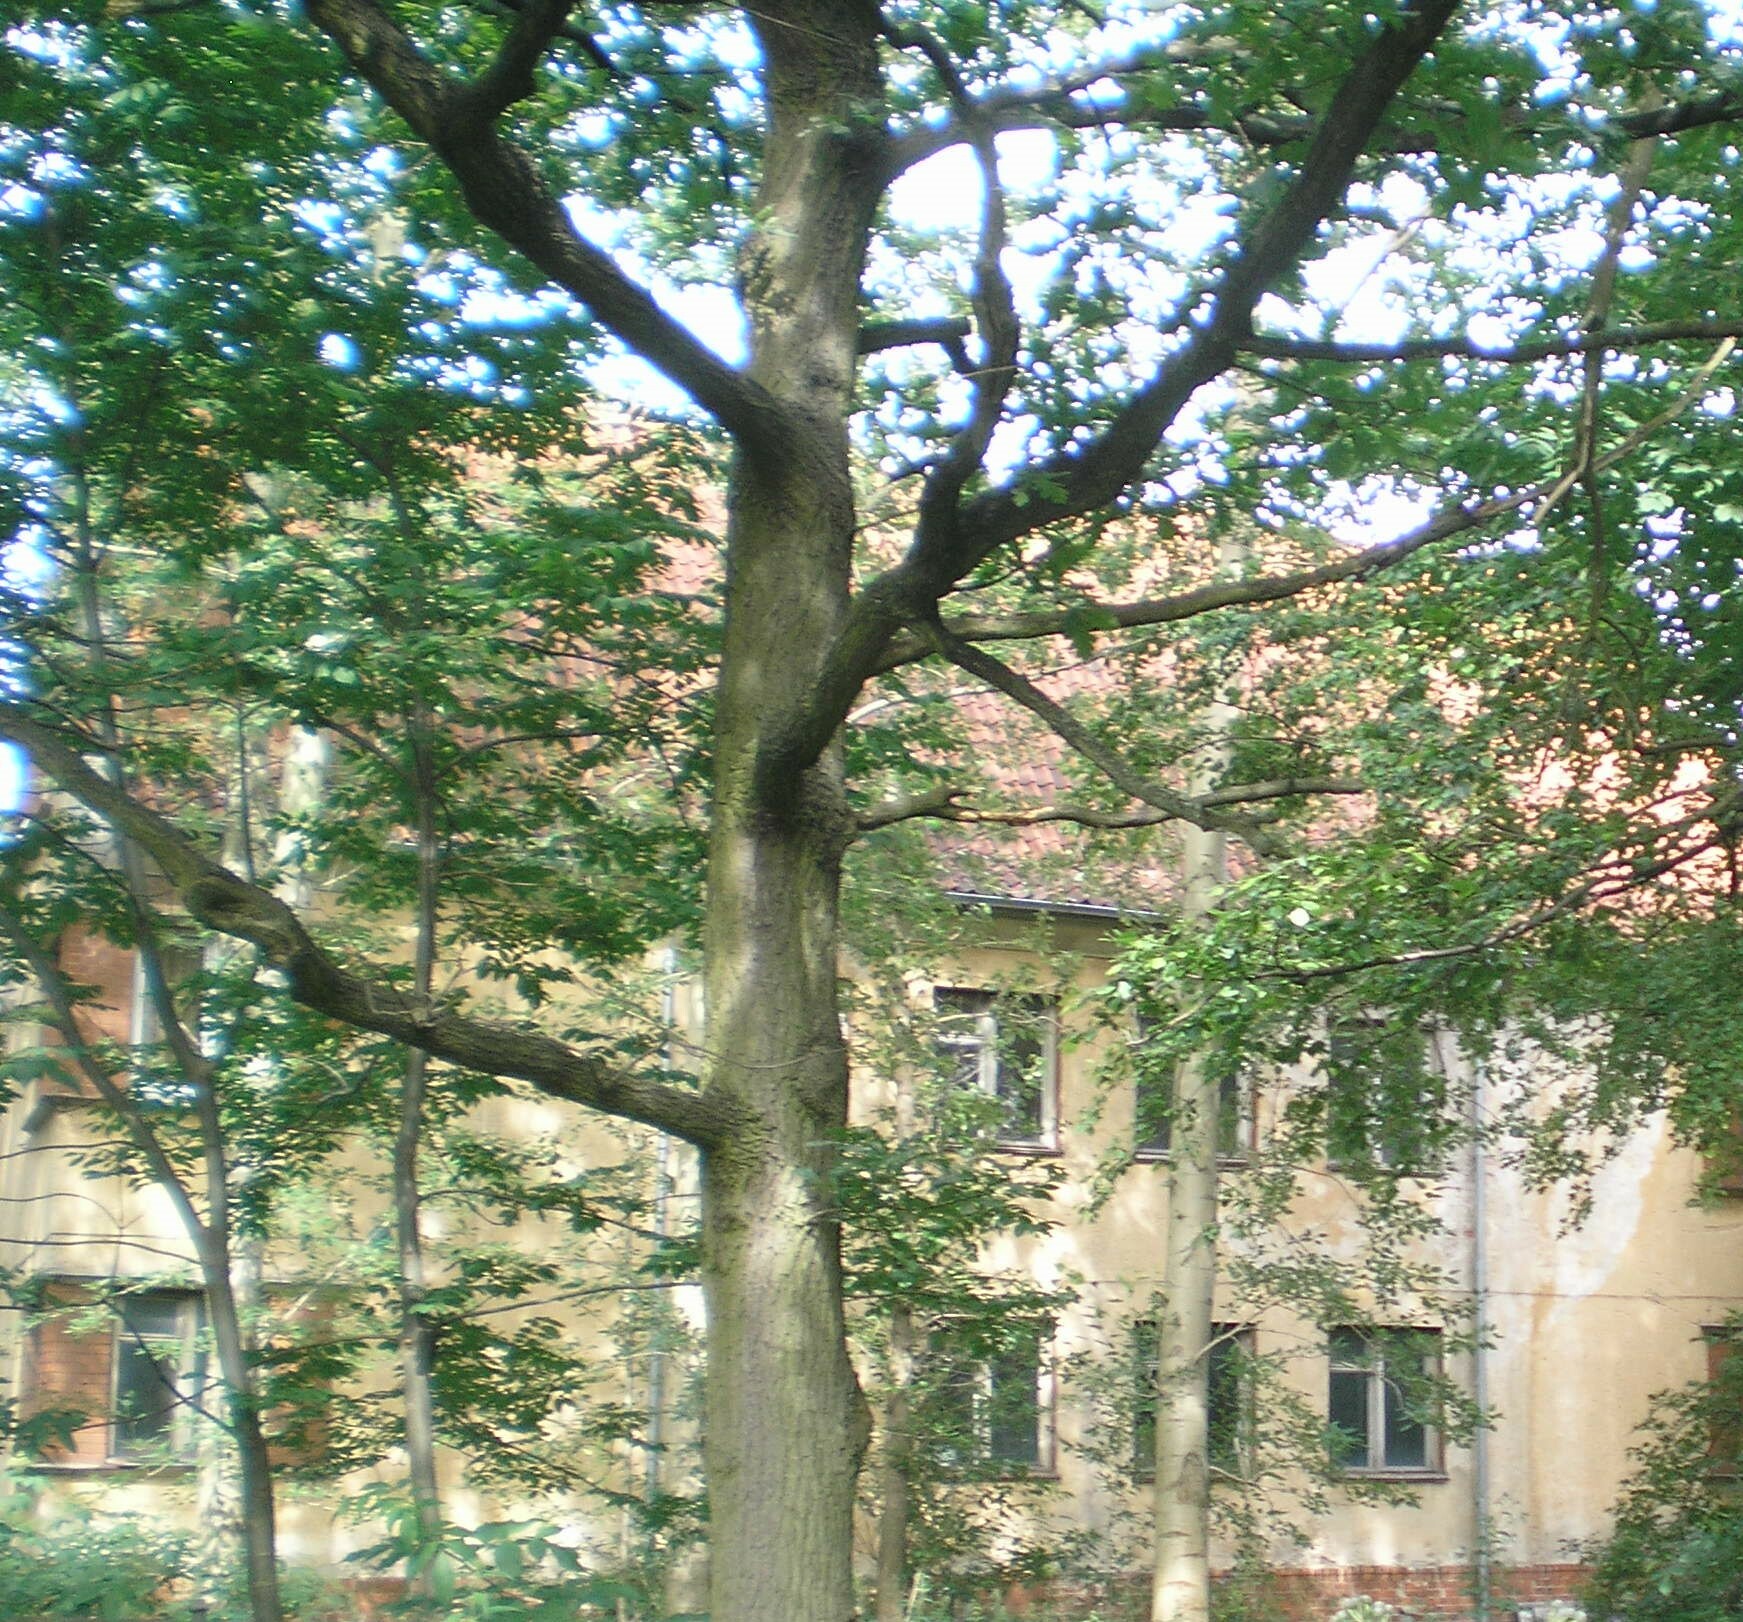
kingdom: Plantae
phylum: Tracheophyta
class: Magnoliopsida
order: Fagales
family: Fagaceae
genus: Quercus
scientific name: Quercus robur
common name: Pedunculate oak
